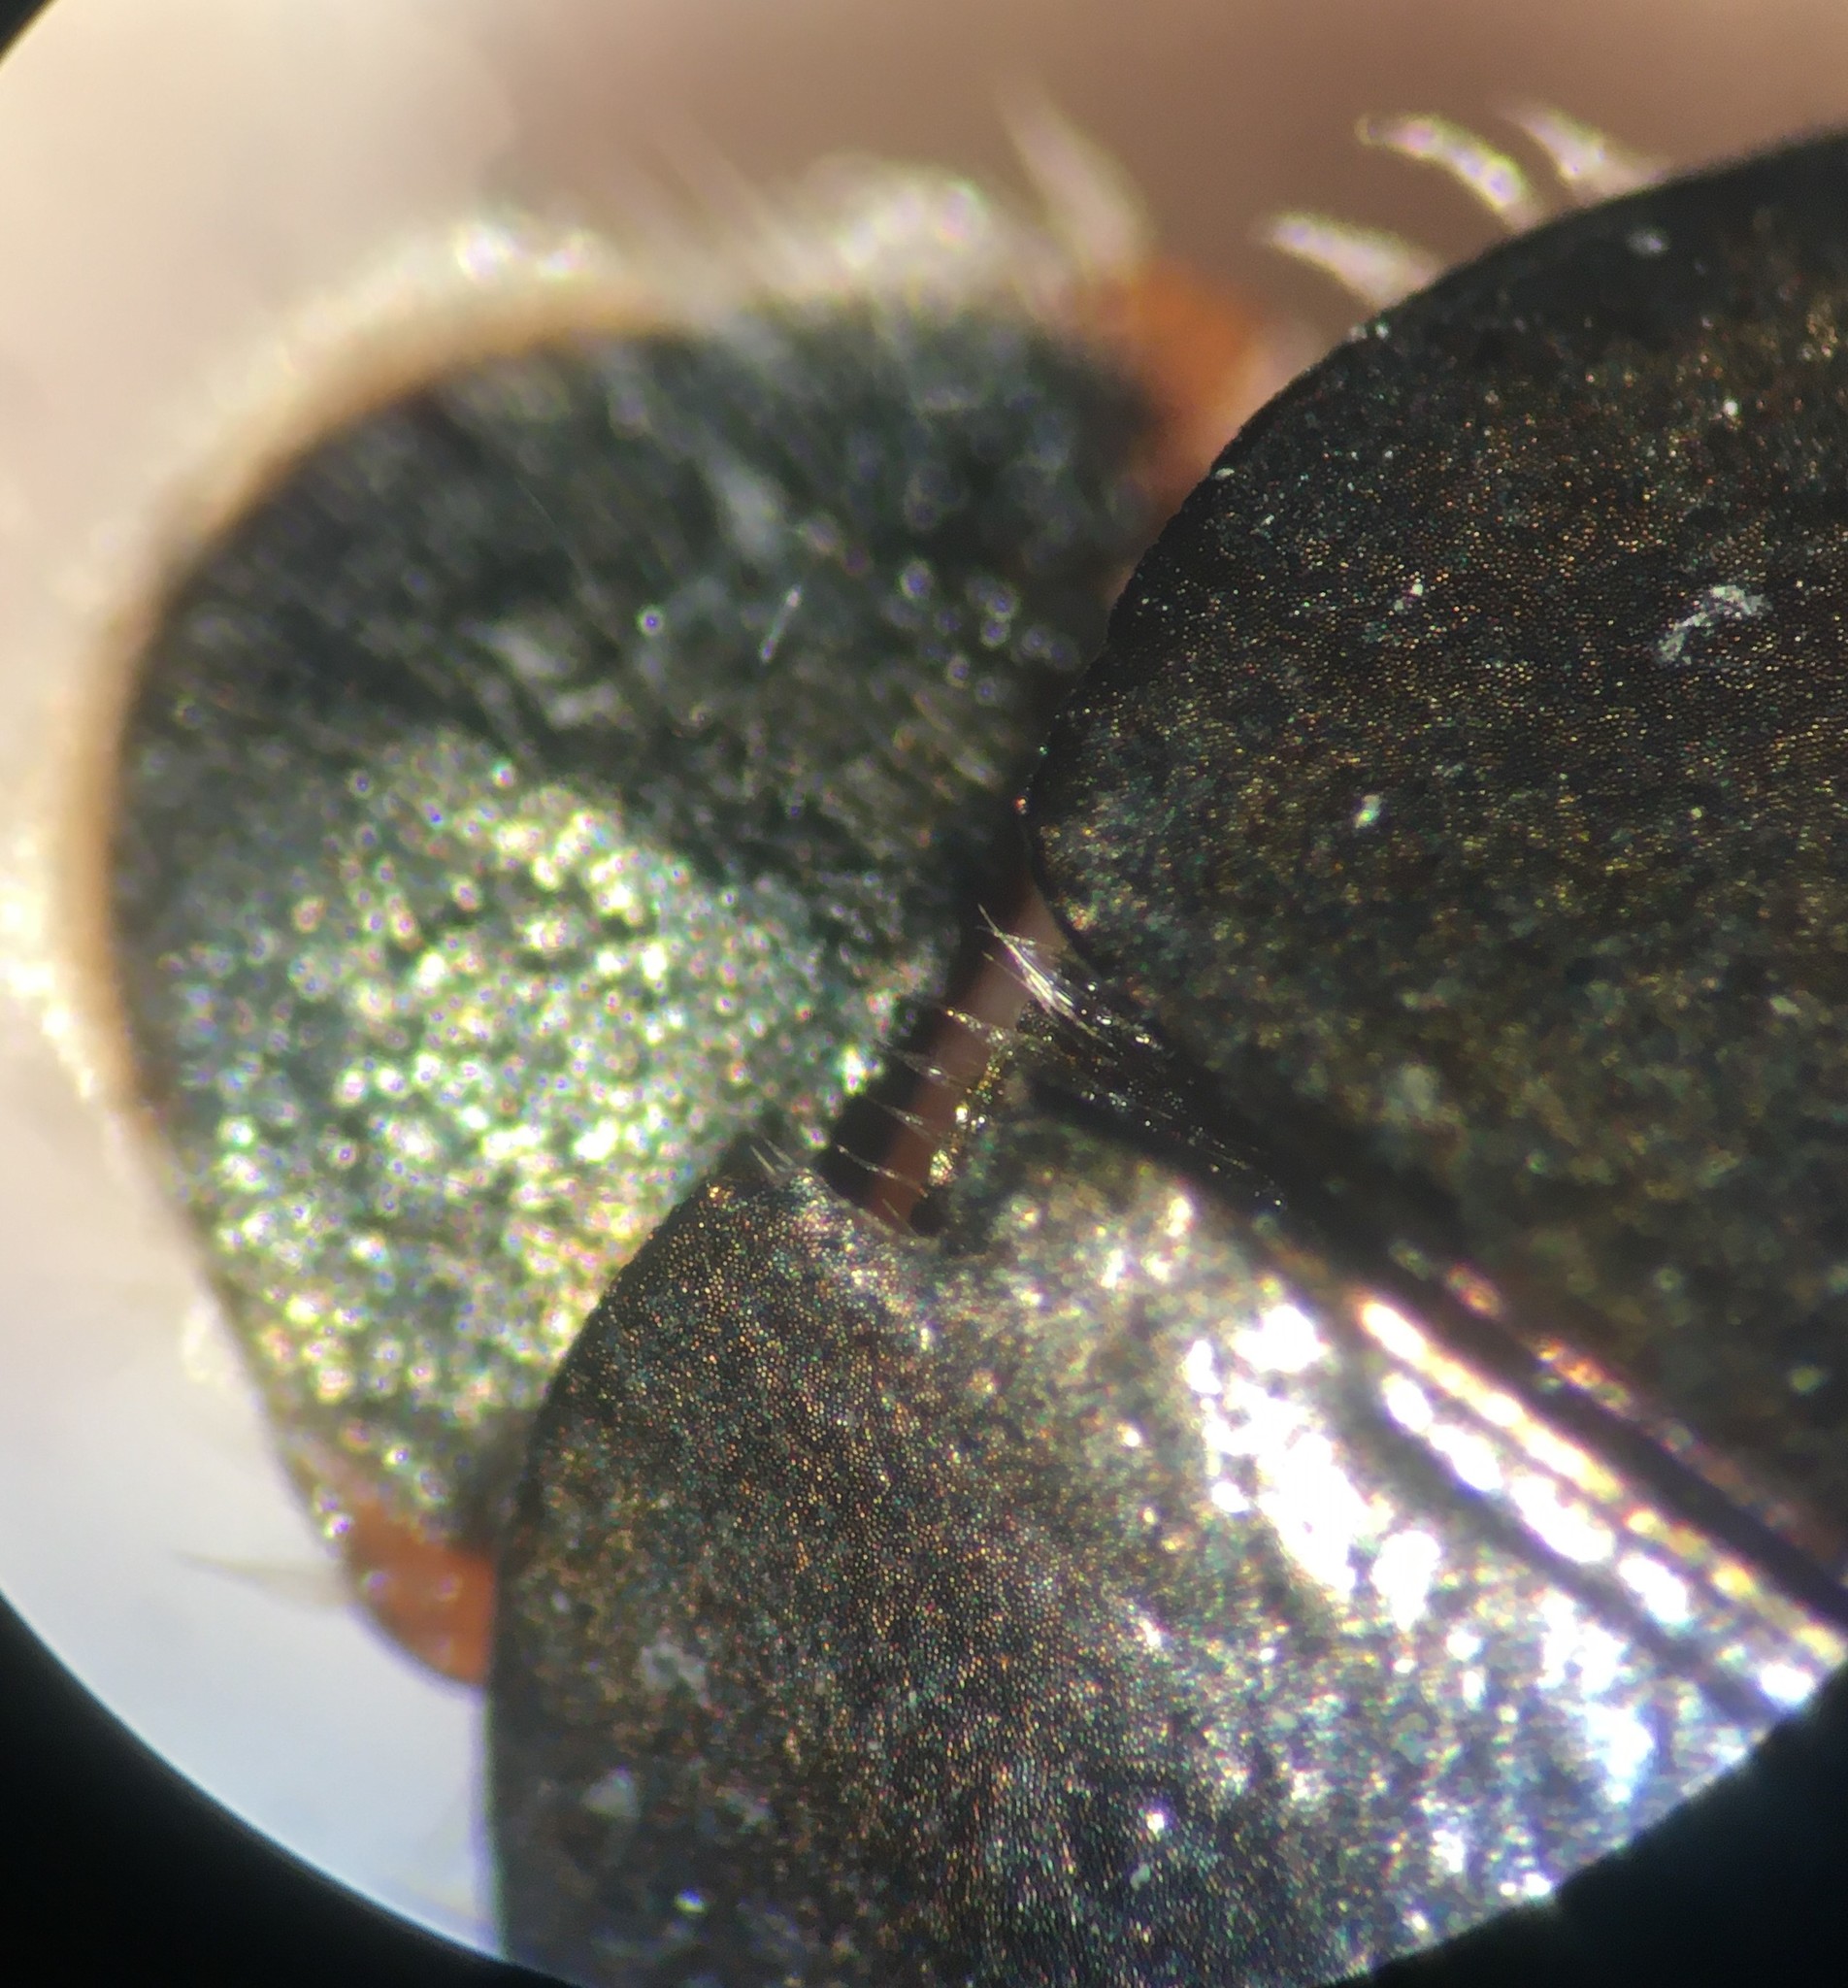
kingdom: Animalia
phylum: Arthropoda
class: Insecta
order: Coleoptera
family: Gyrinidae
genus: Dineutus
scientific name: Dineutus carolinus
